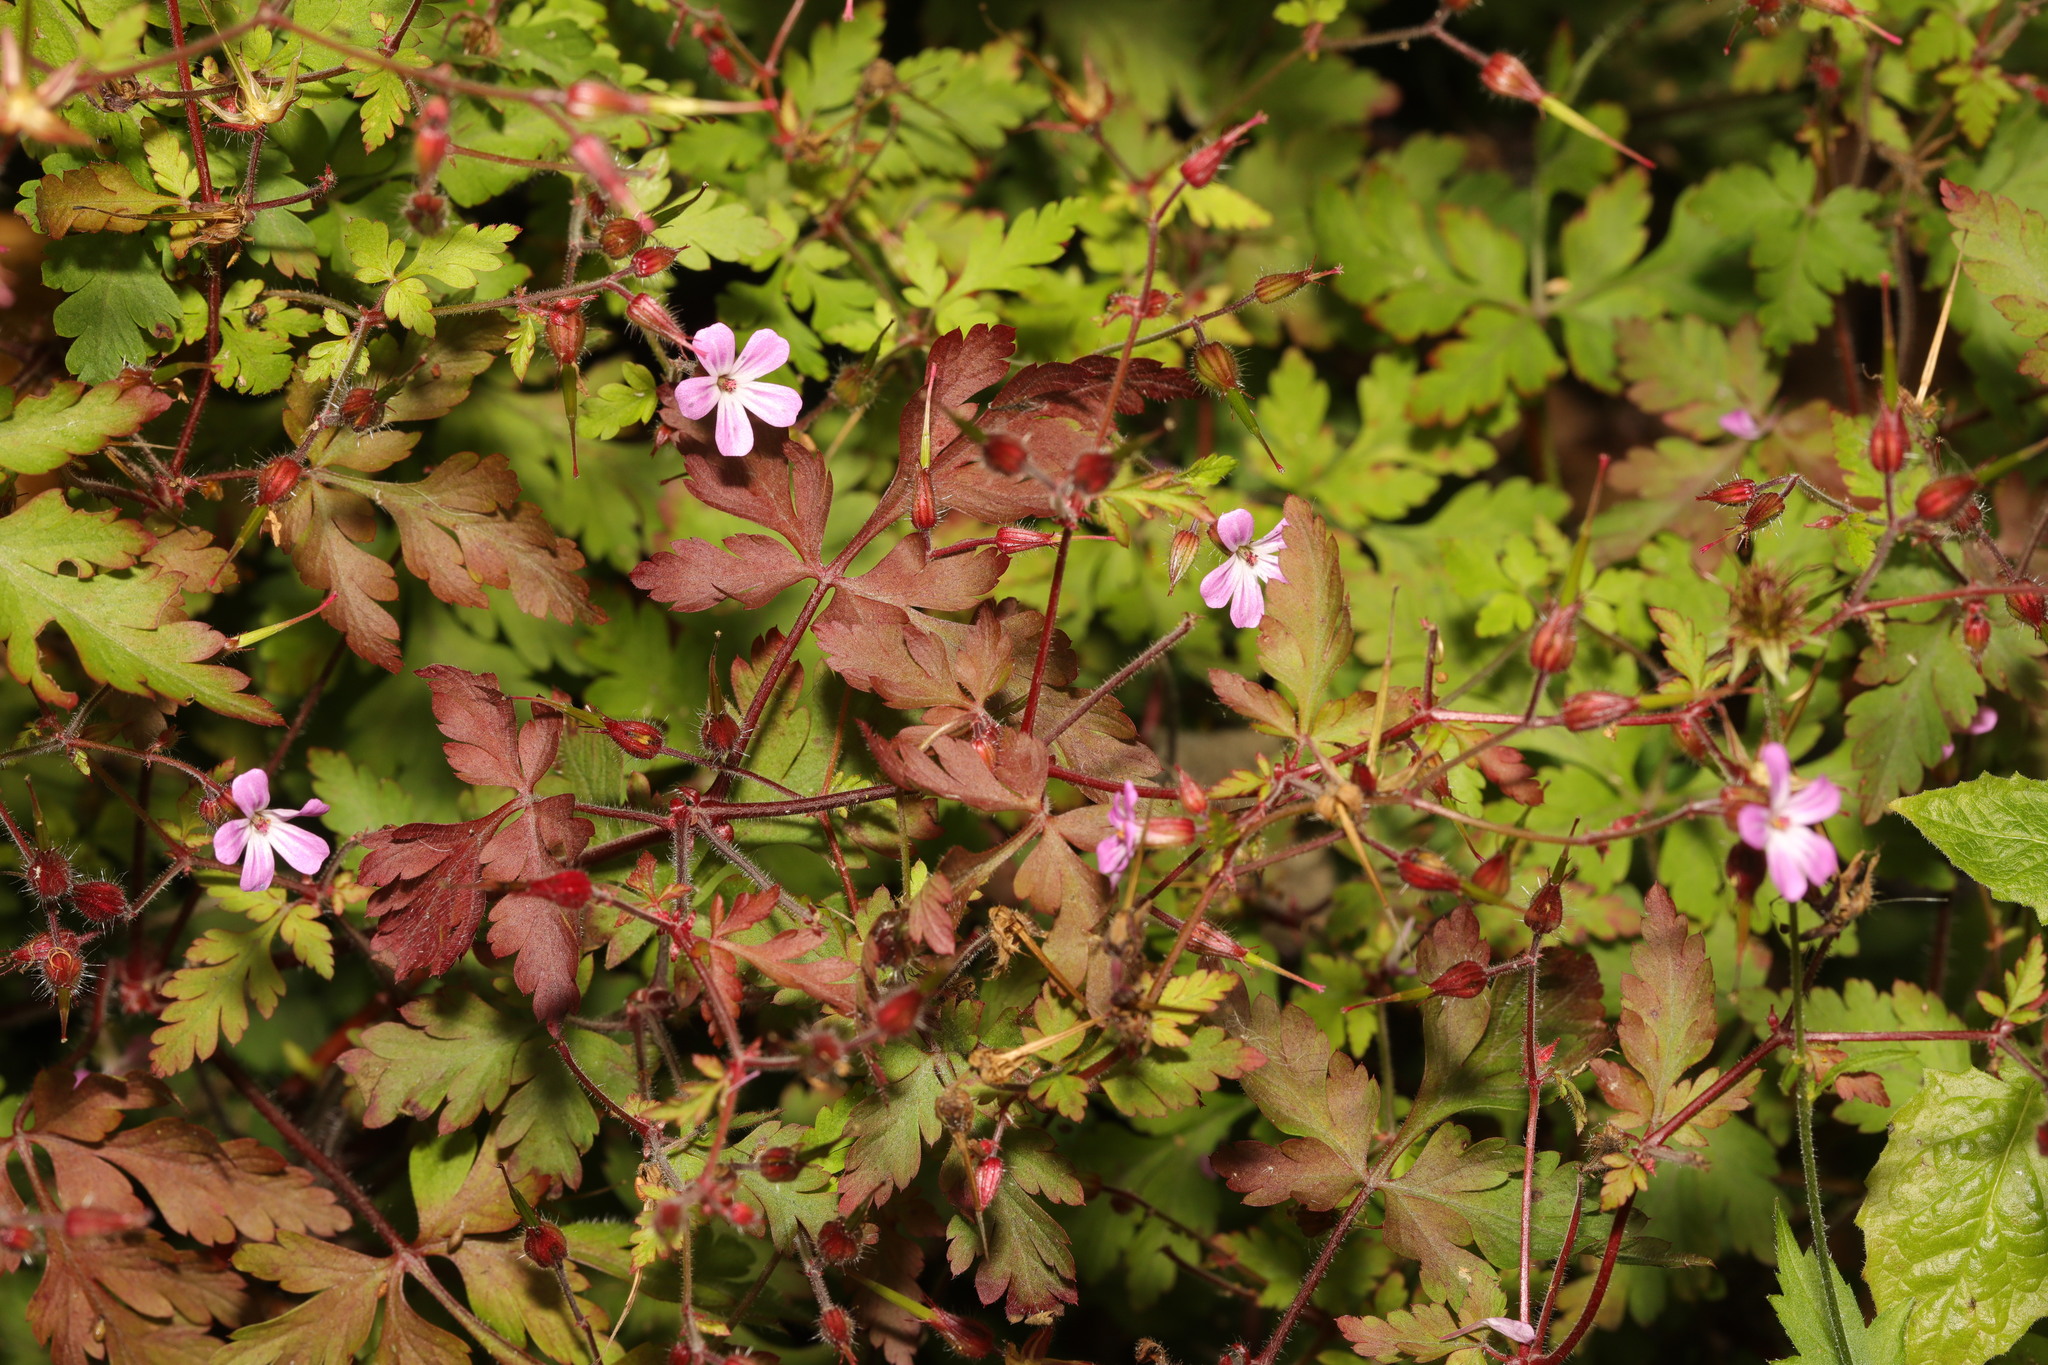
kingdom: Plantae
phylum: Tracheophyta
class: Magnoliopsida
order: Geraniales
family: Geraniaceae
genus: Geranium
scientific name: Geranium robertianum
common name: Herb-robert
